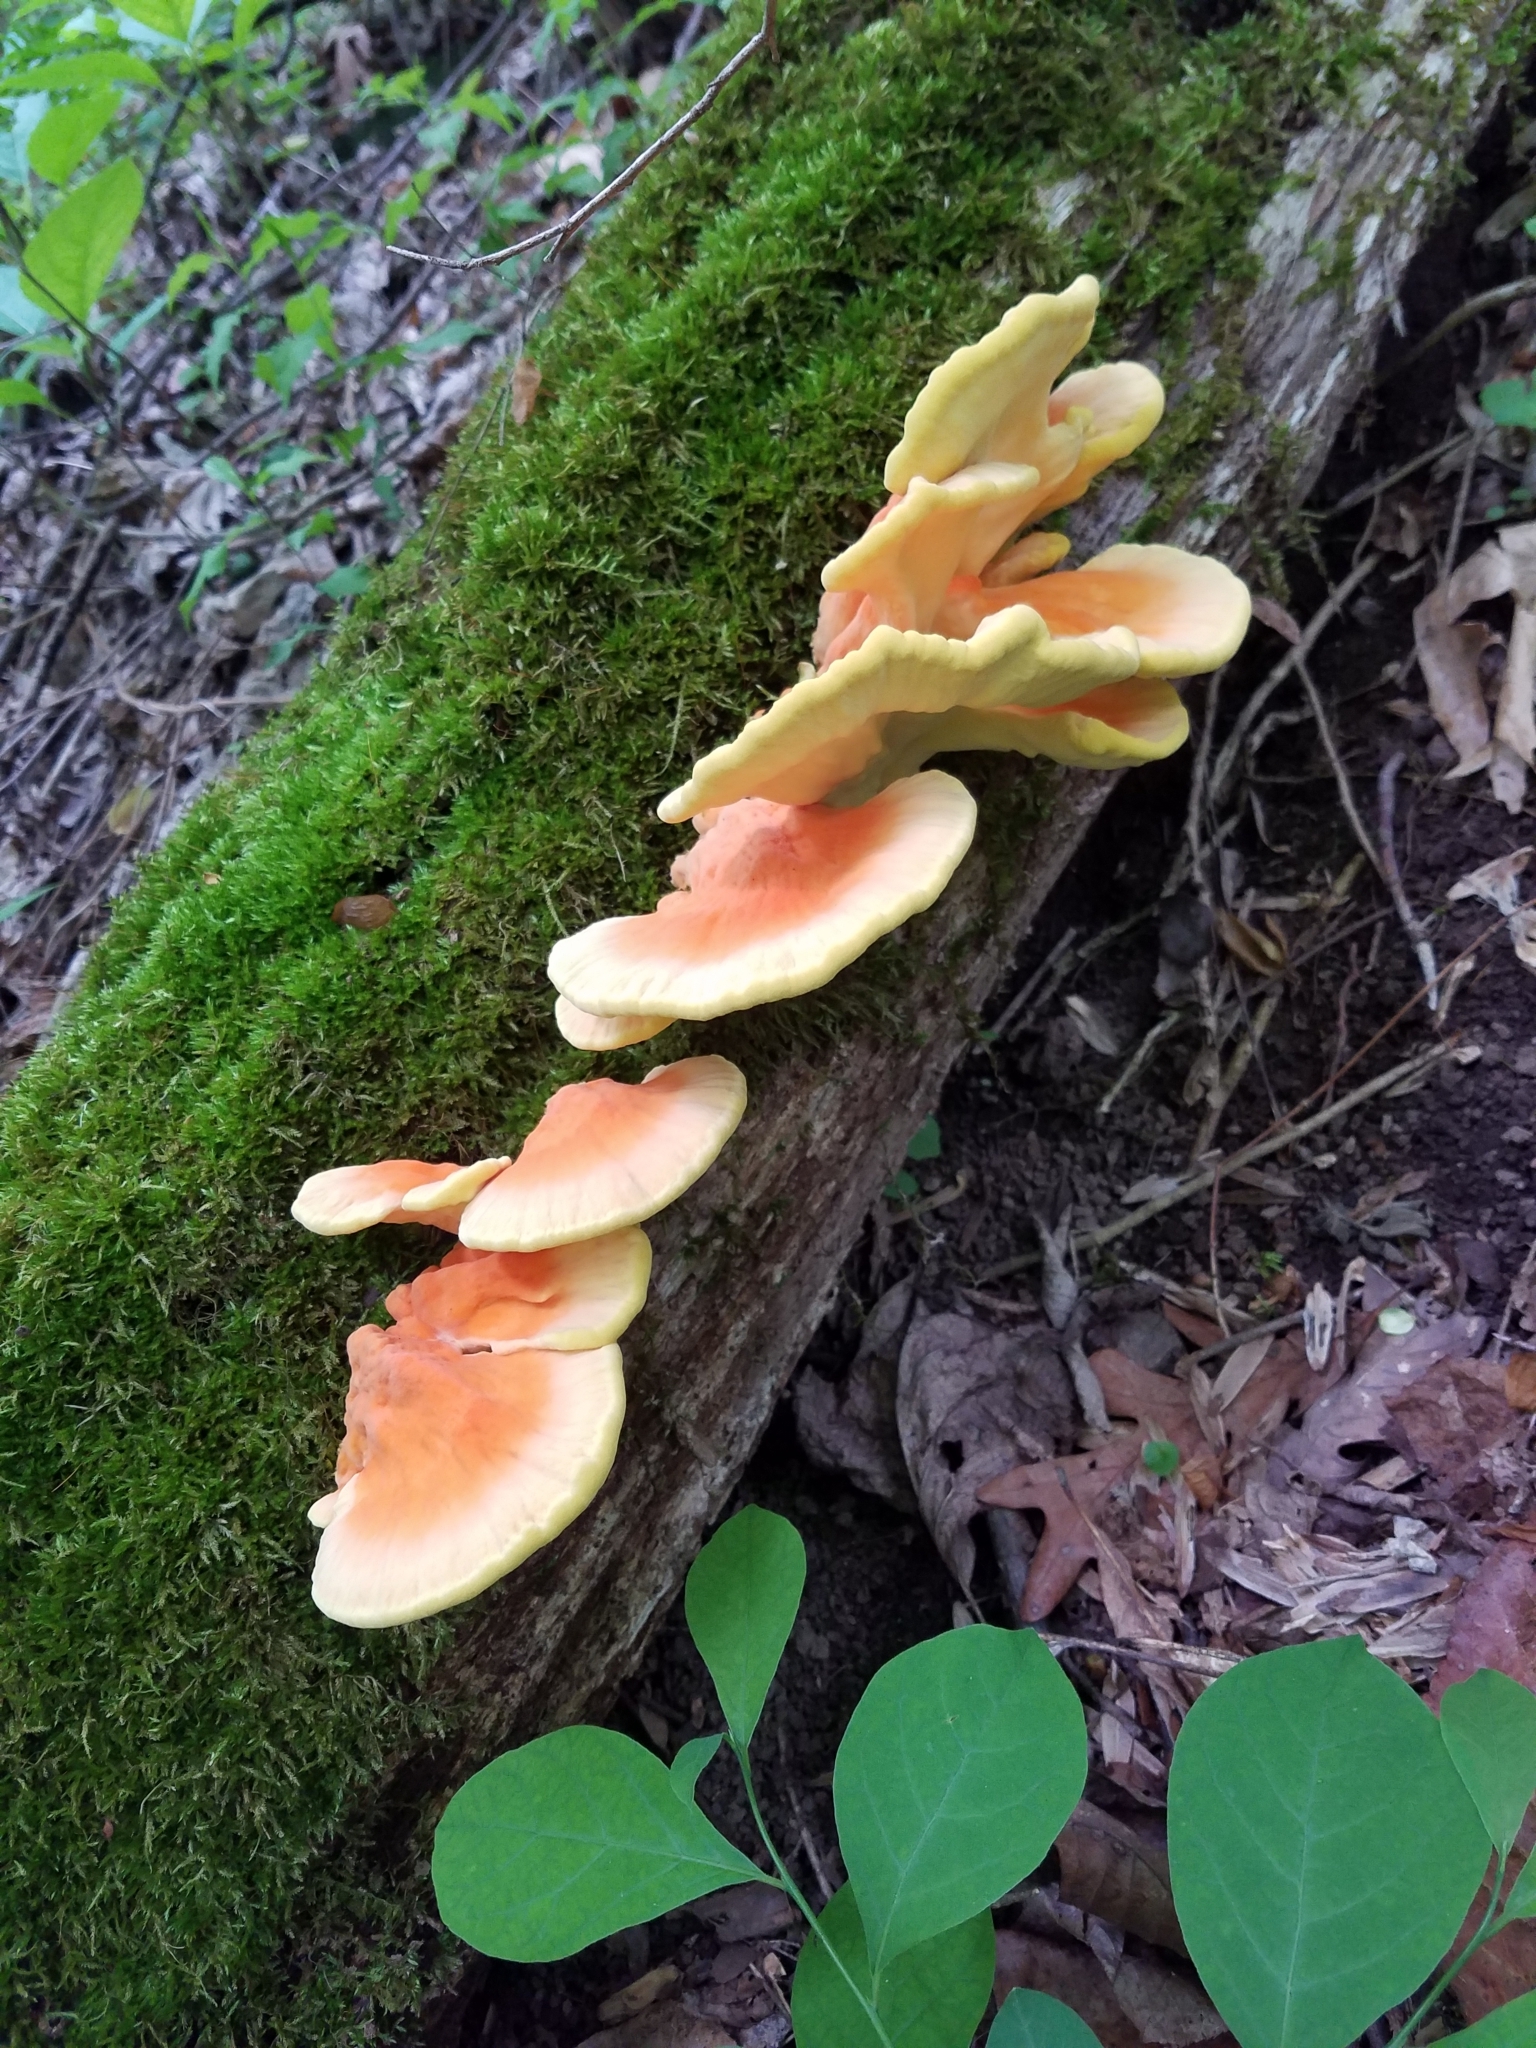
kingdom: Fungi
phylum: Basidiomycota
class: Agaricomycetes
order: Polyporales
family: Laetiporaceae
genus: Laetiporus
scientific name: Laetiporus sulphureus
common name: Chicken of the woods
